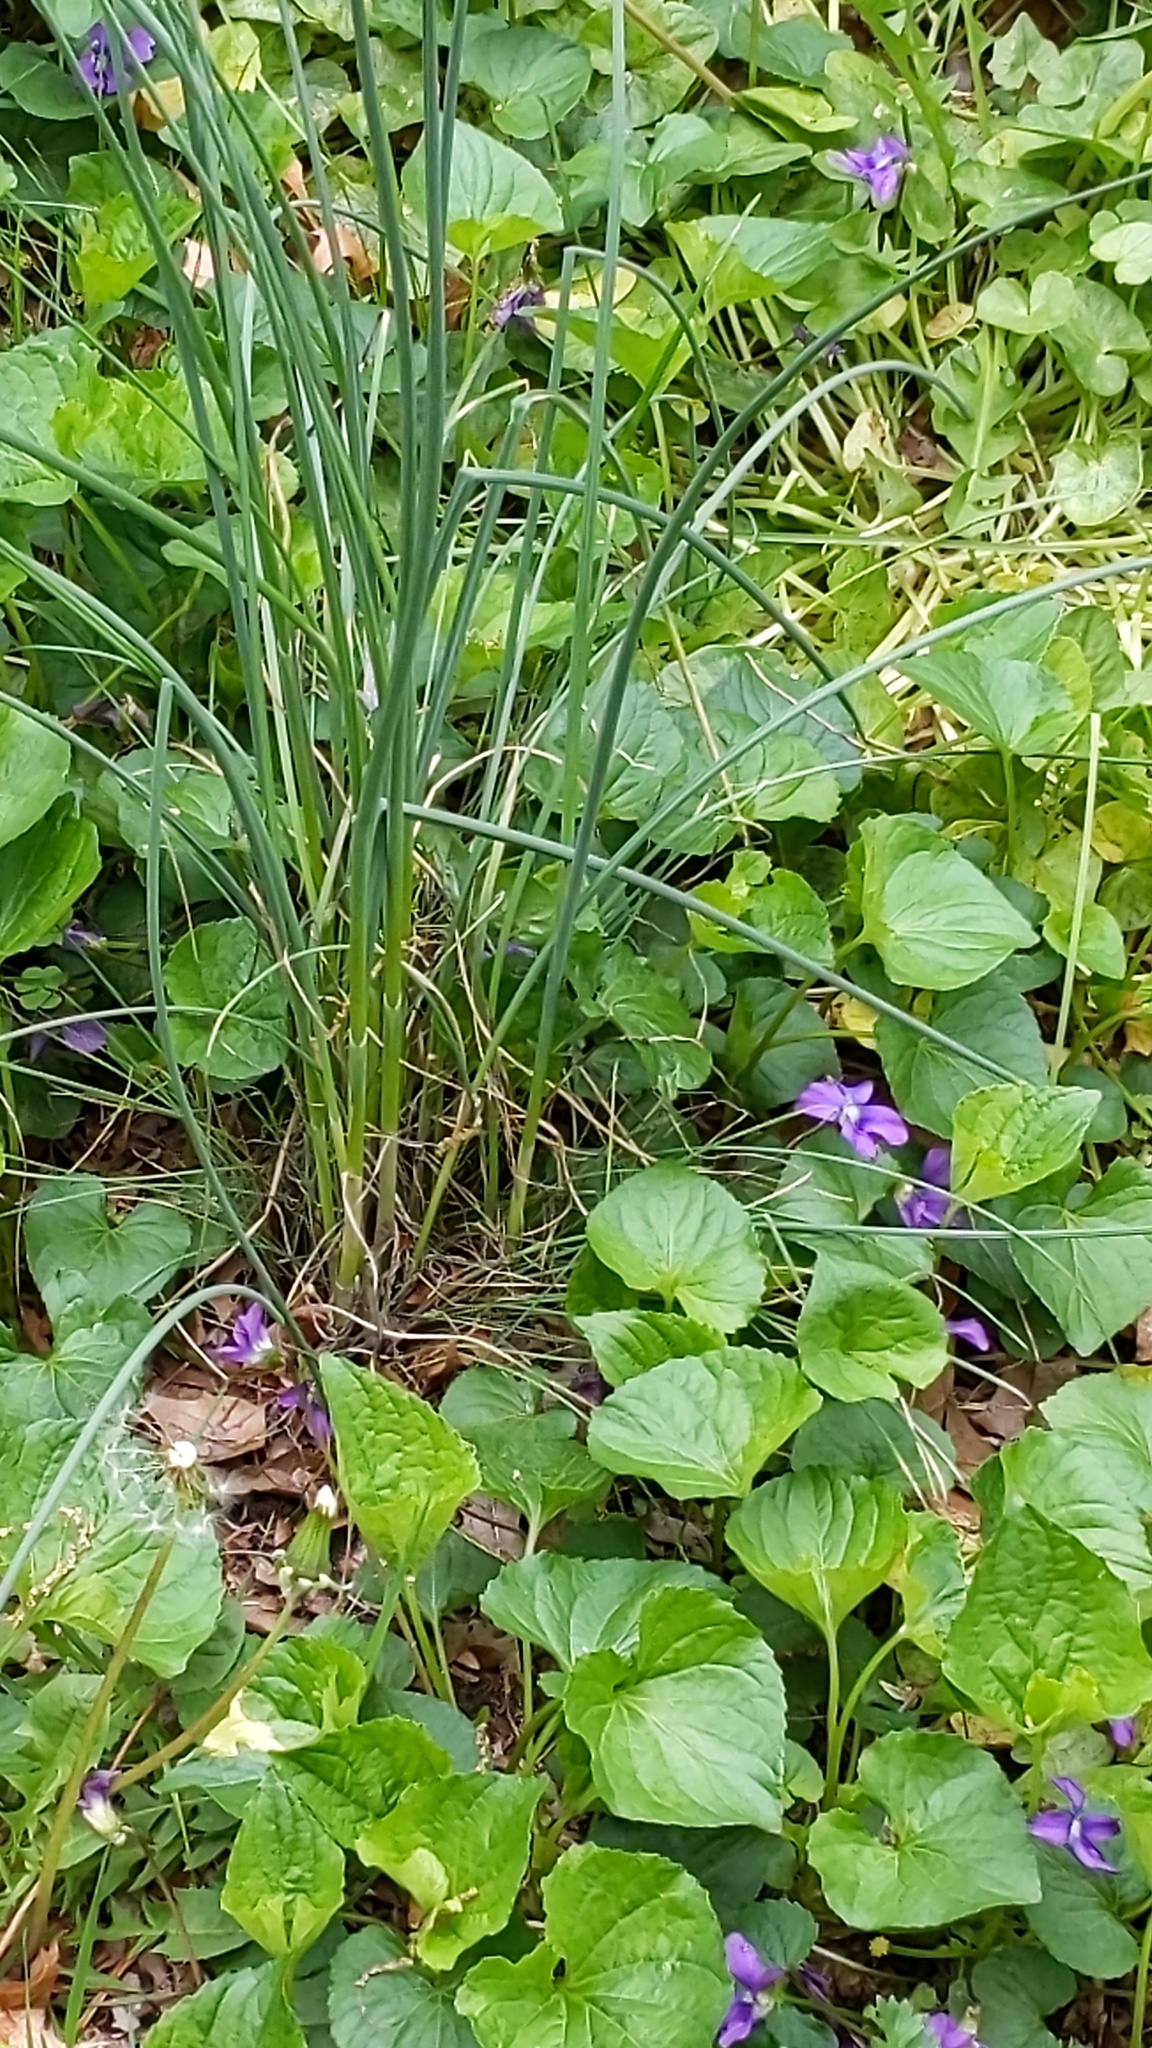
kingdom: Plantae
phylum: Tracheophyta
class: Liliopsida
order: Asparagales
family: Amaryllidaceae
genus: Allium
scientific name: Allium vineale
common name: Crow garlic
